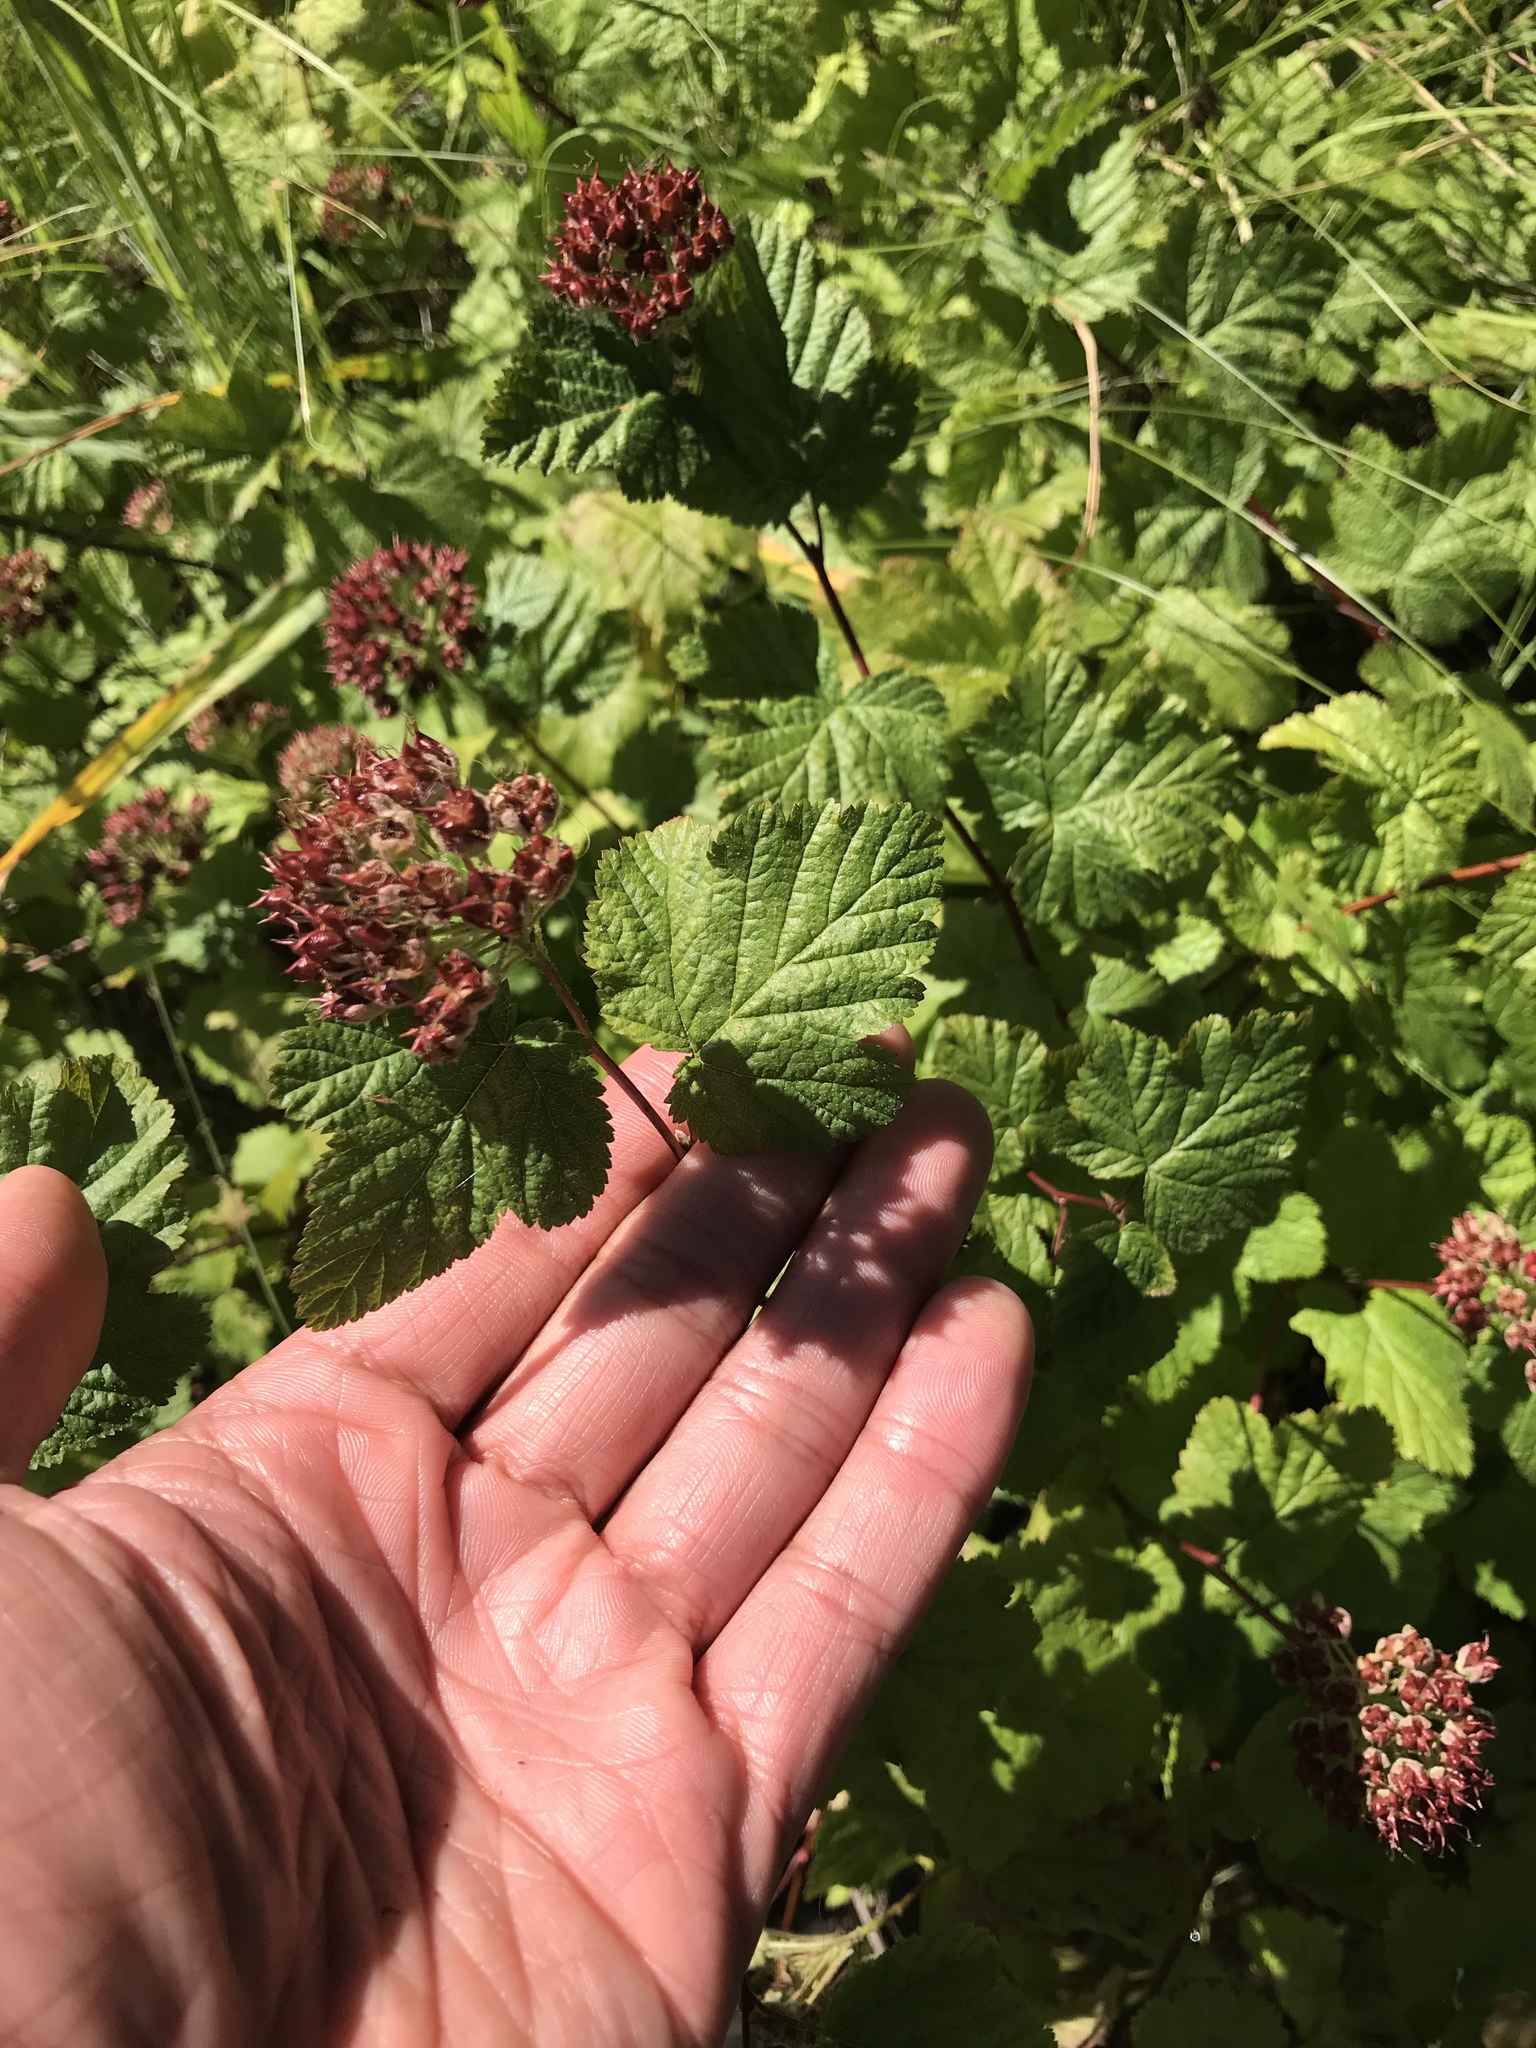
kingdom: Plantae
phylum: Tracheophyta
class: Magnoliopsida
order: Rosales
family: Rosaceae
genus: Physocarpus
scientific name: Physocarpus capitatus
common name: Pacific ninebark
